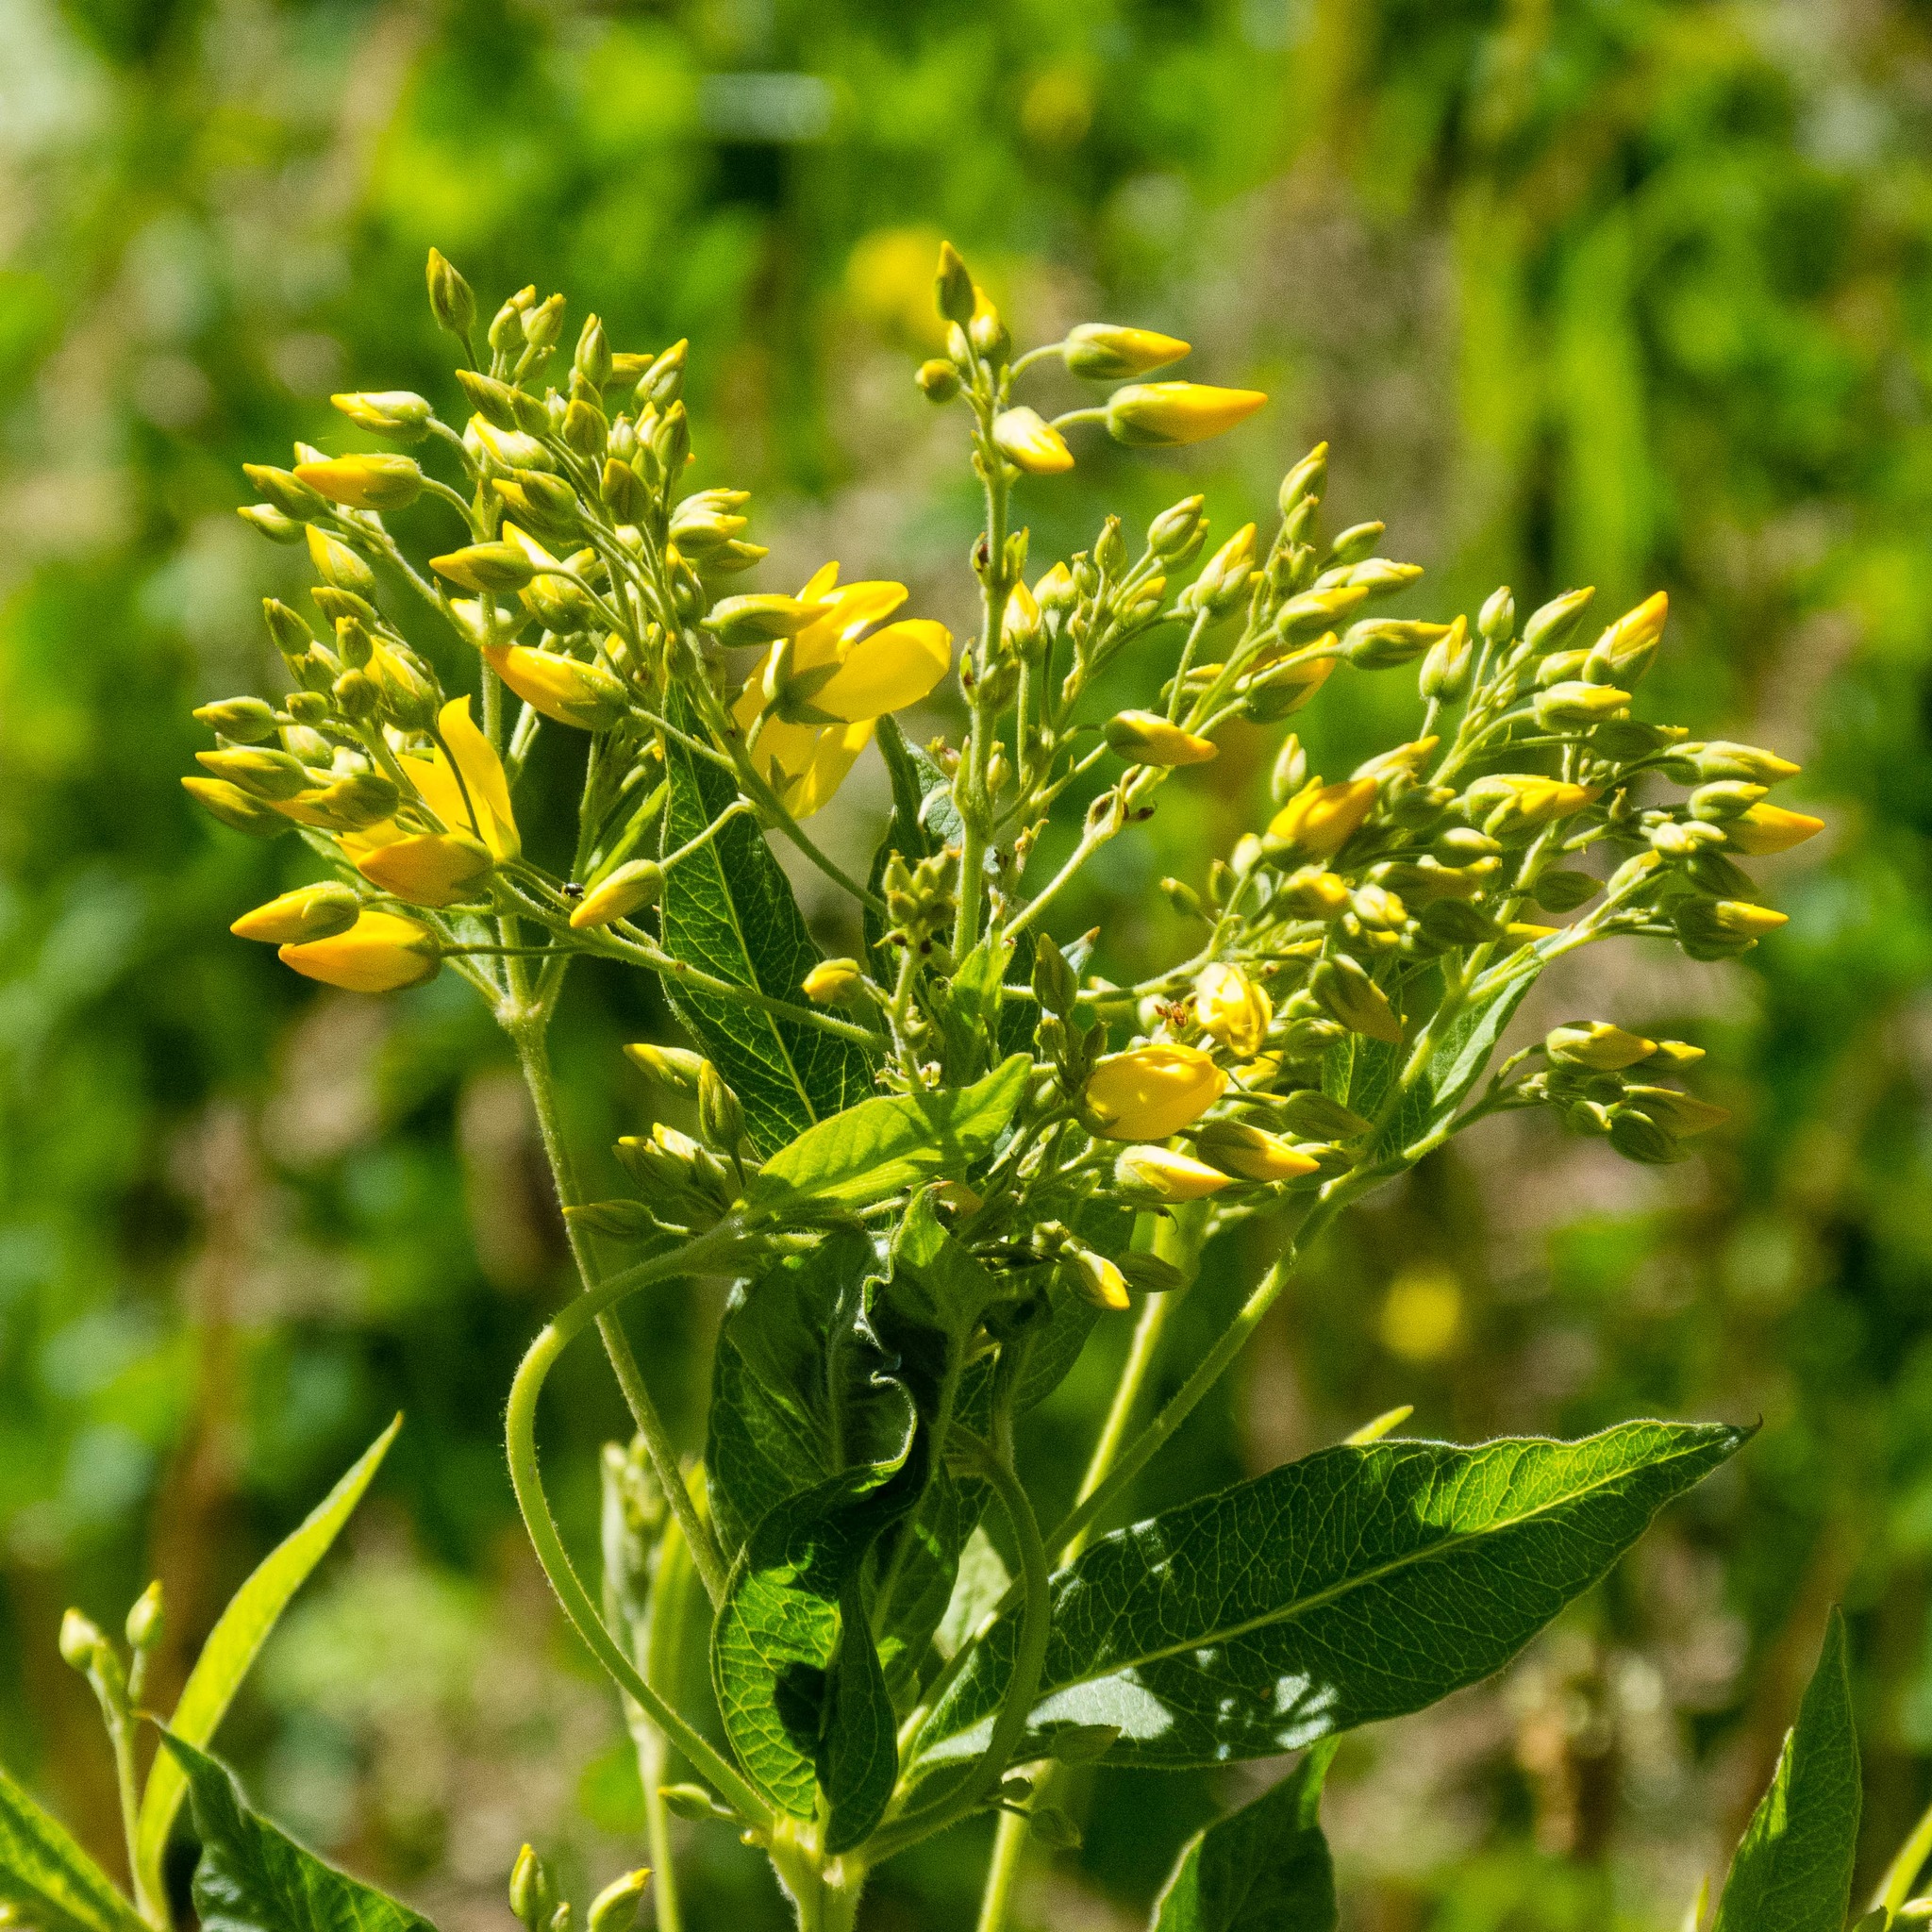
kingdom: Plantae
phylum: Tracheophyta
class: Magnoliopsida
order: Ericales
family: Primulaceae
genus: Lysimachia
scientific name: Lysimachia vulgaris
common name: Yellow loosestrife
